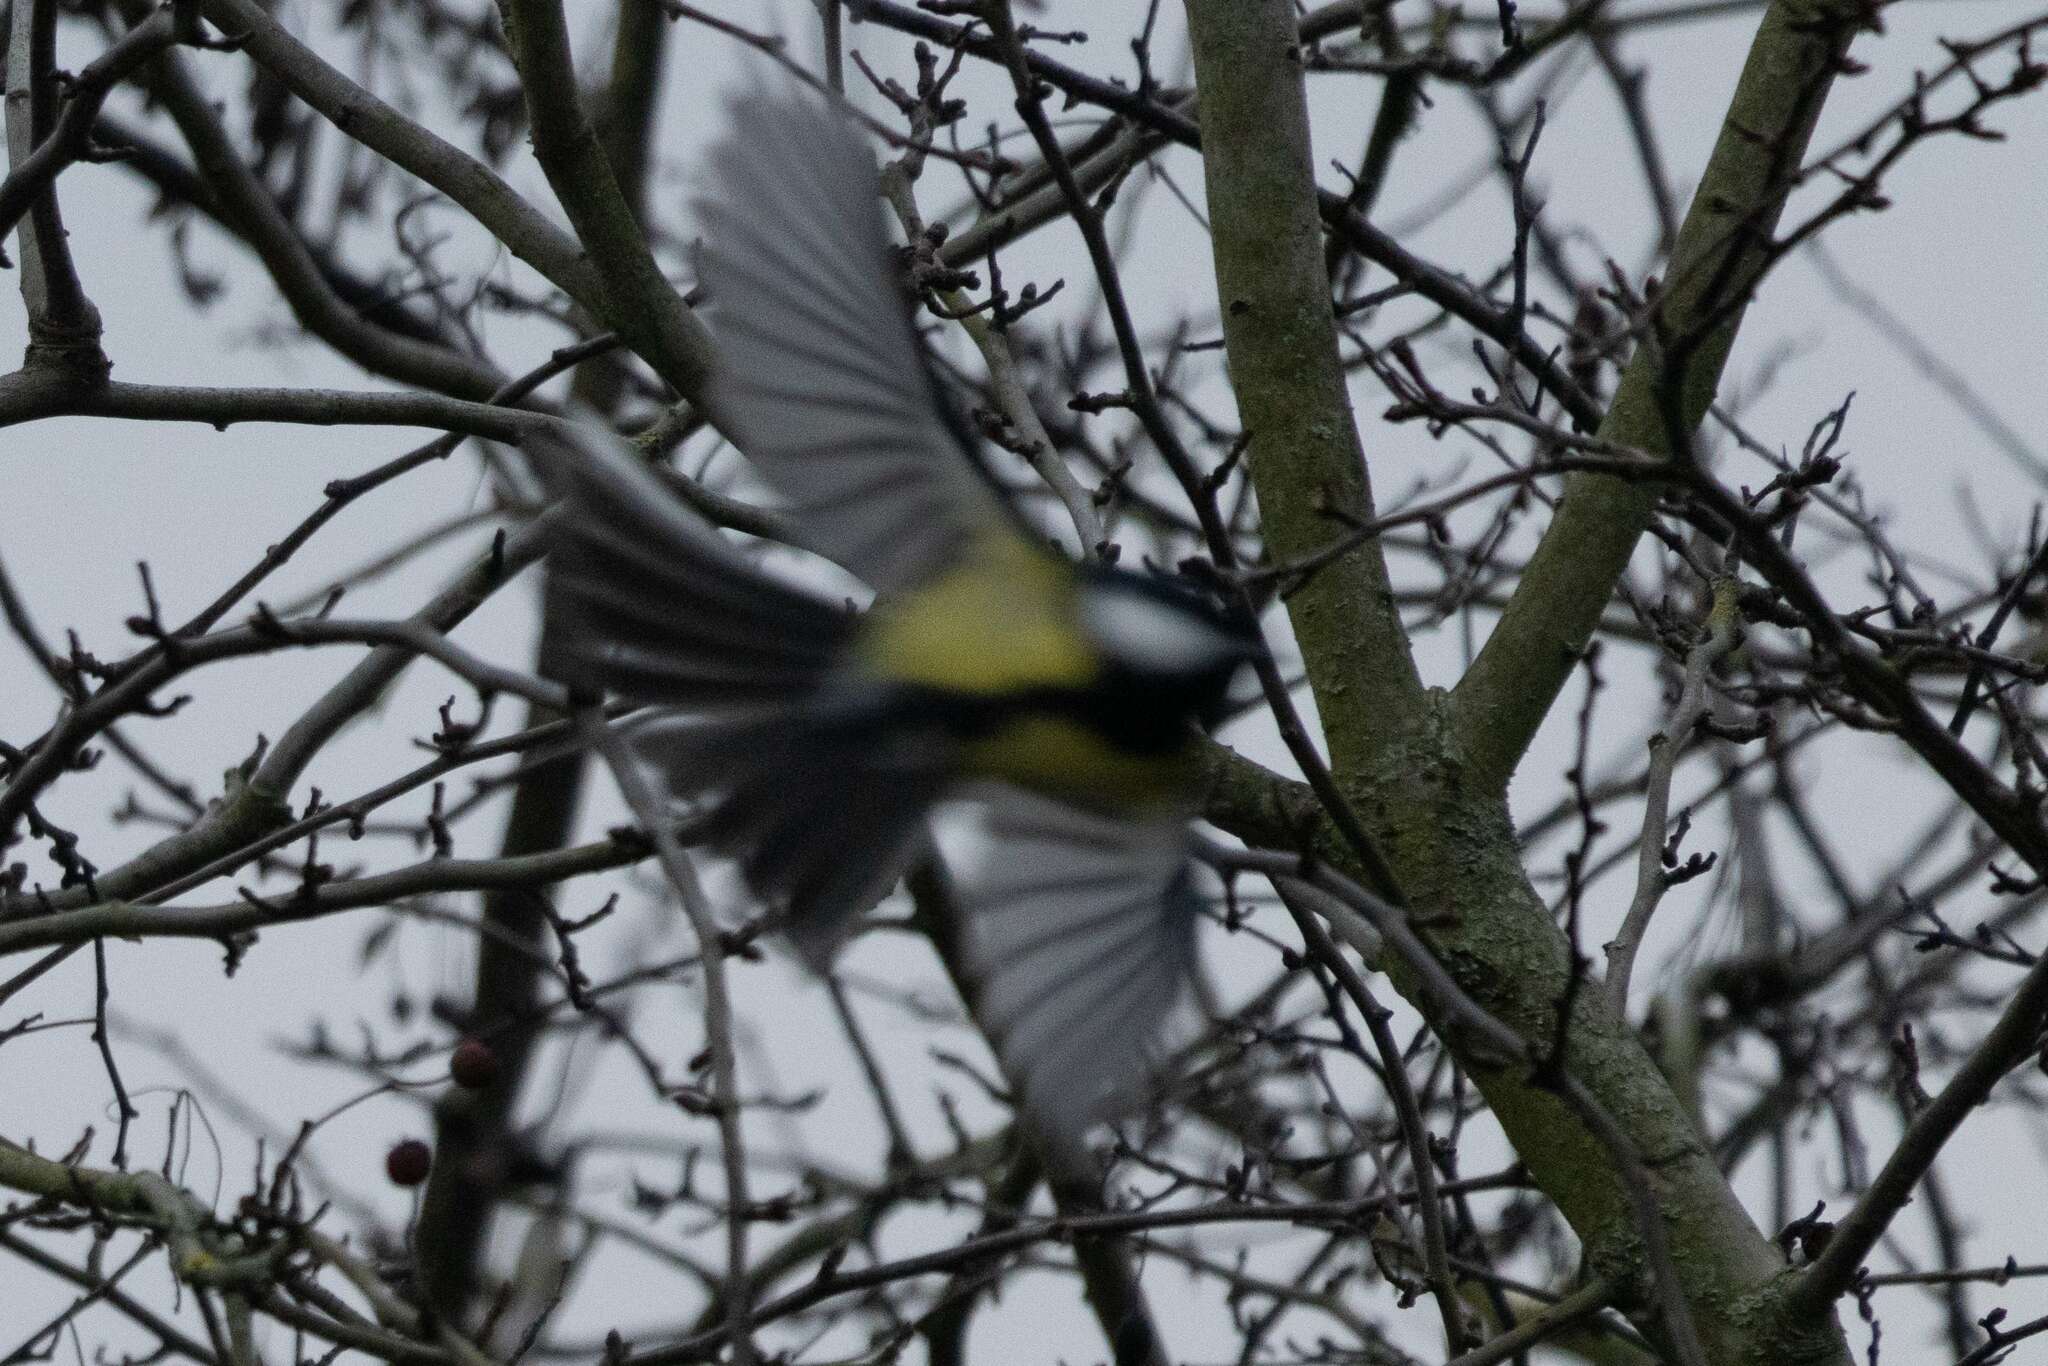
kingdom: Animalia
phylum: Chordata
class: Aves
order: Passeriformes
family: Paridae
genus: Parus
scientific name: Parus major
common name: Great tit
